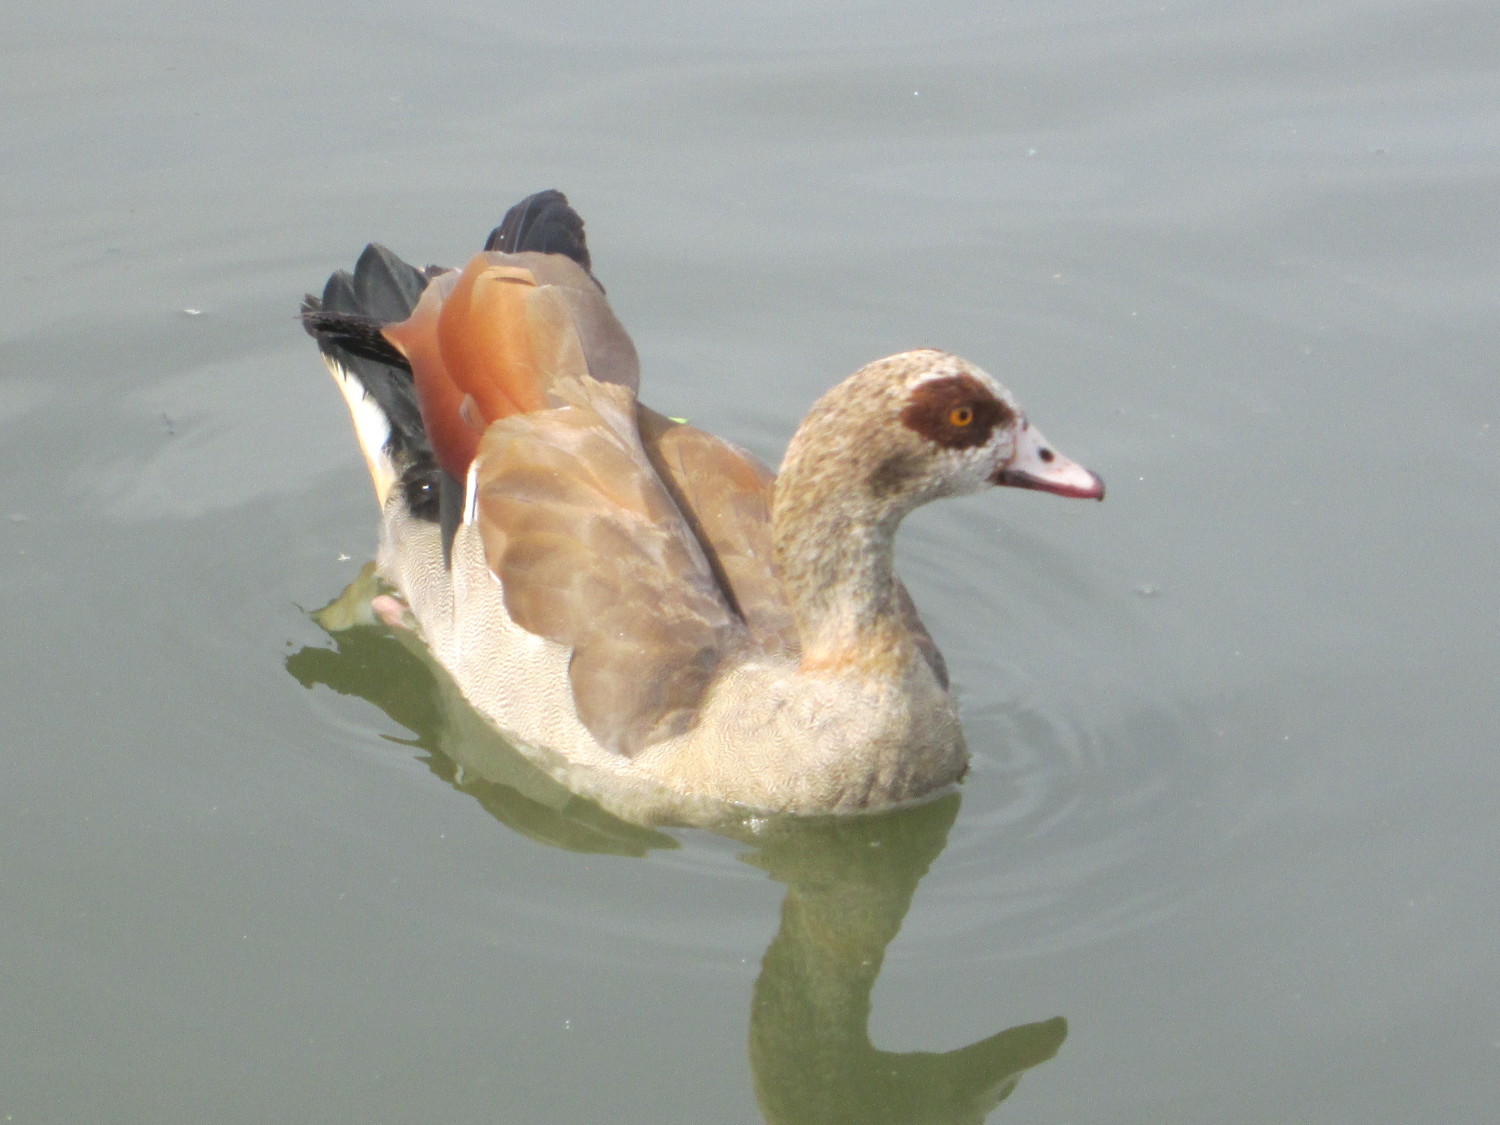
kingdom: Animalia
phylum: Chordata
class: Aves
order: Anseriformes
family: Anatidae
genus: Alopochen
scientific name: Alopochen aegyptiaca
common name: Egyptian goose
